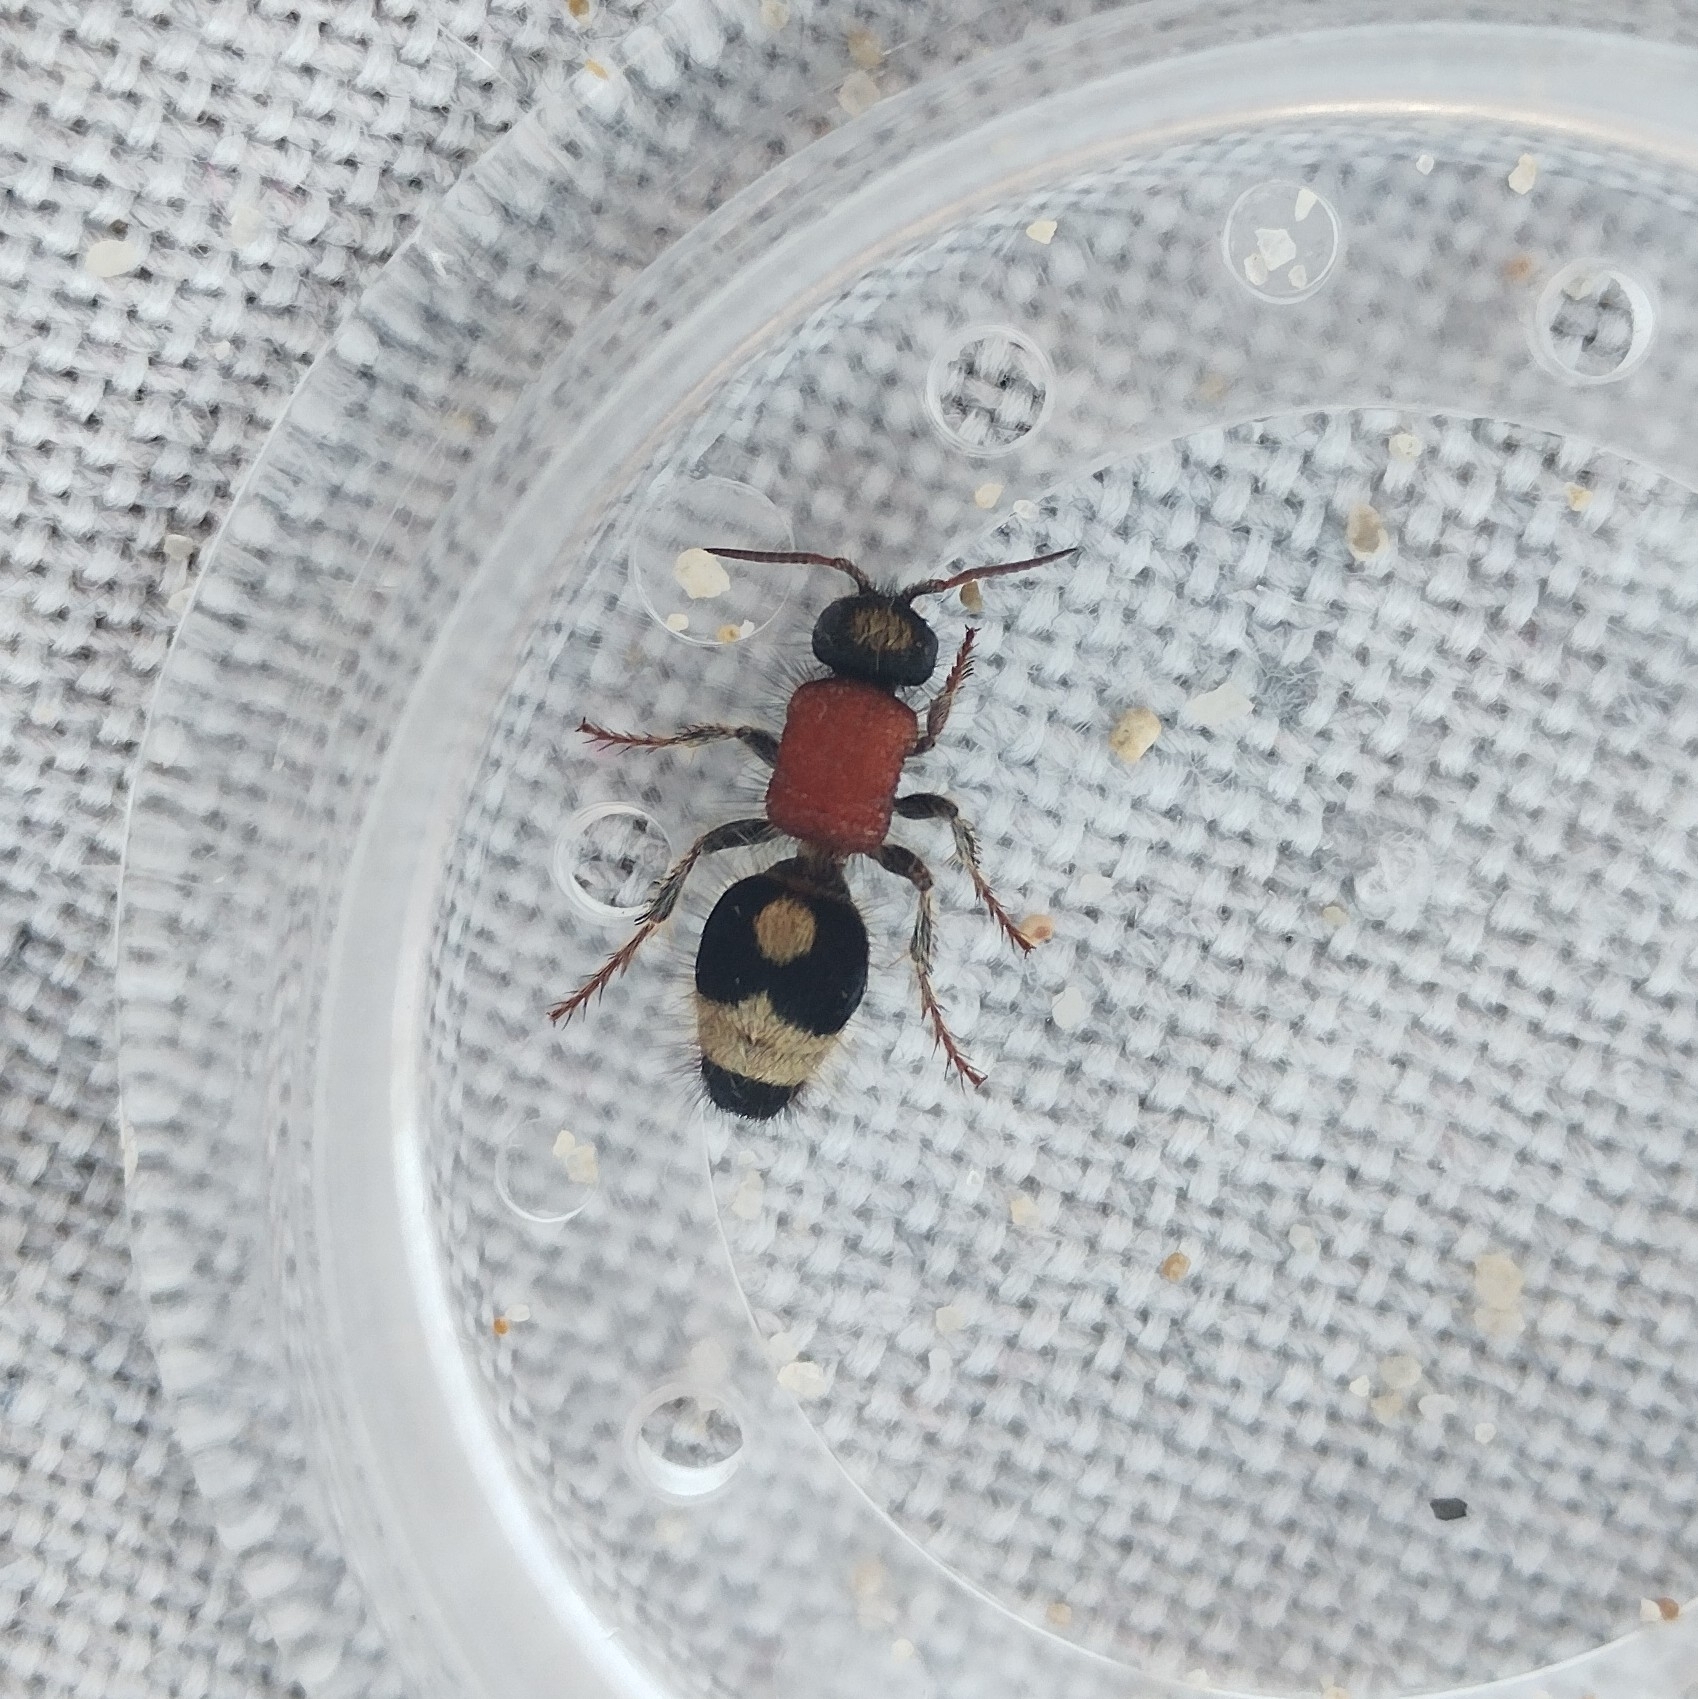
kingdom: Animalia
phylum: Arthropoda
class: Insecta
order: Hymenoptera
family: Mutillidae
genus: Nemka
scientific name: Nemka viduata
